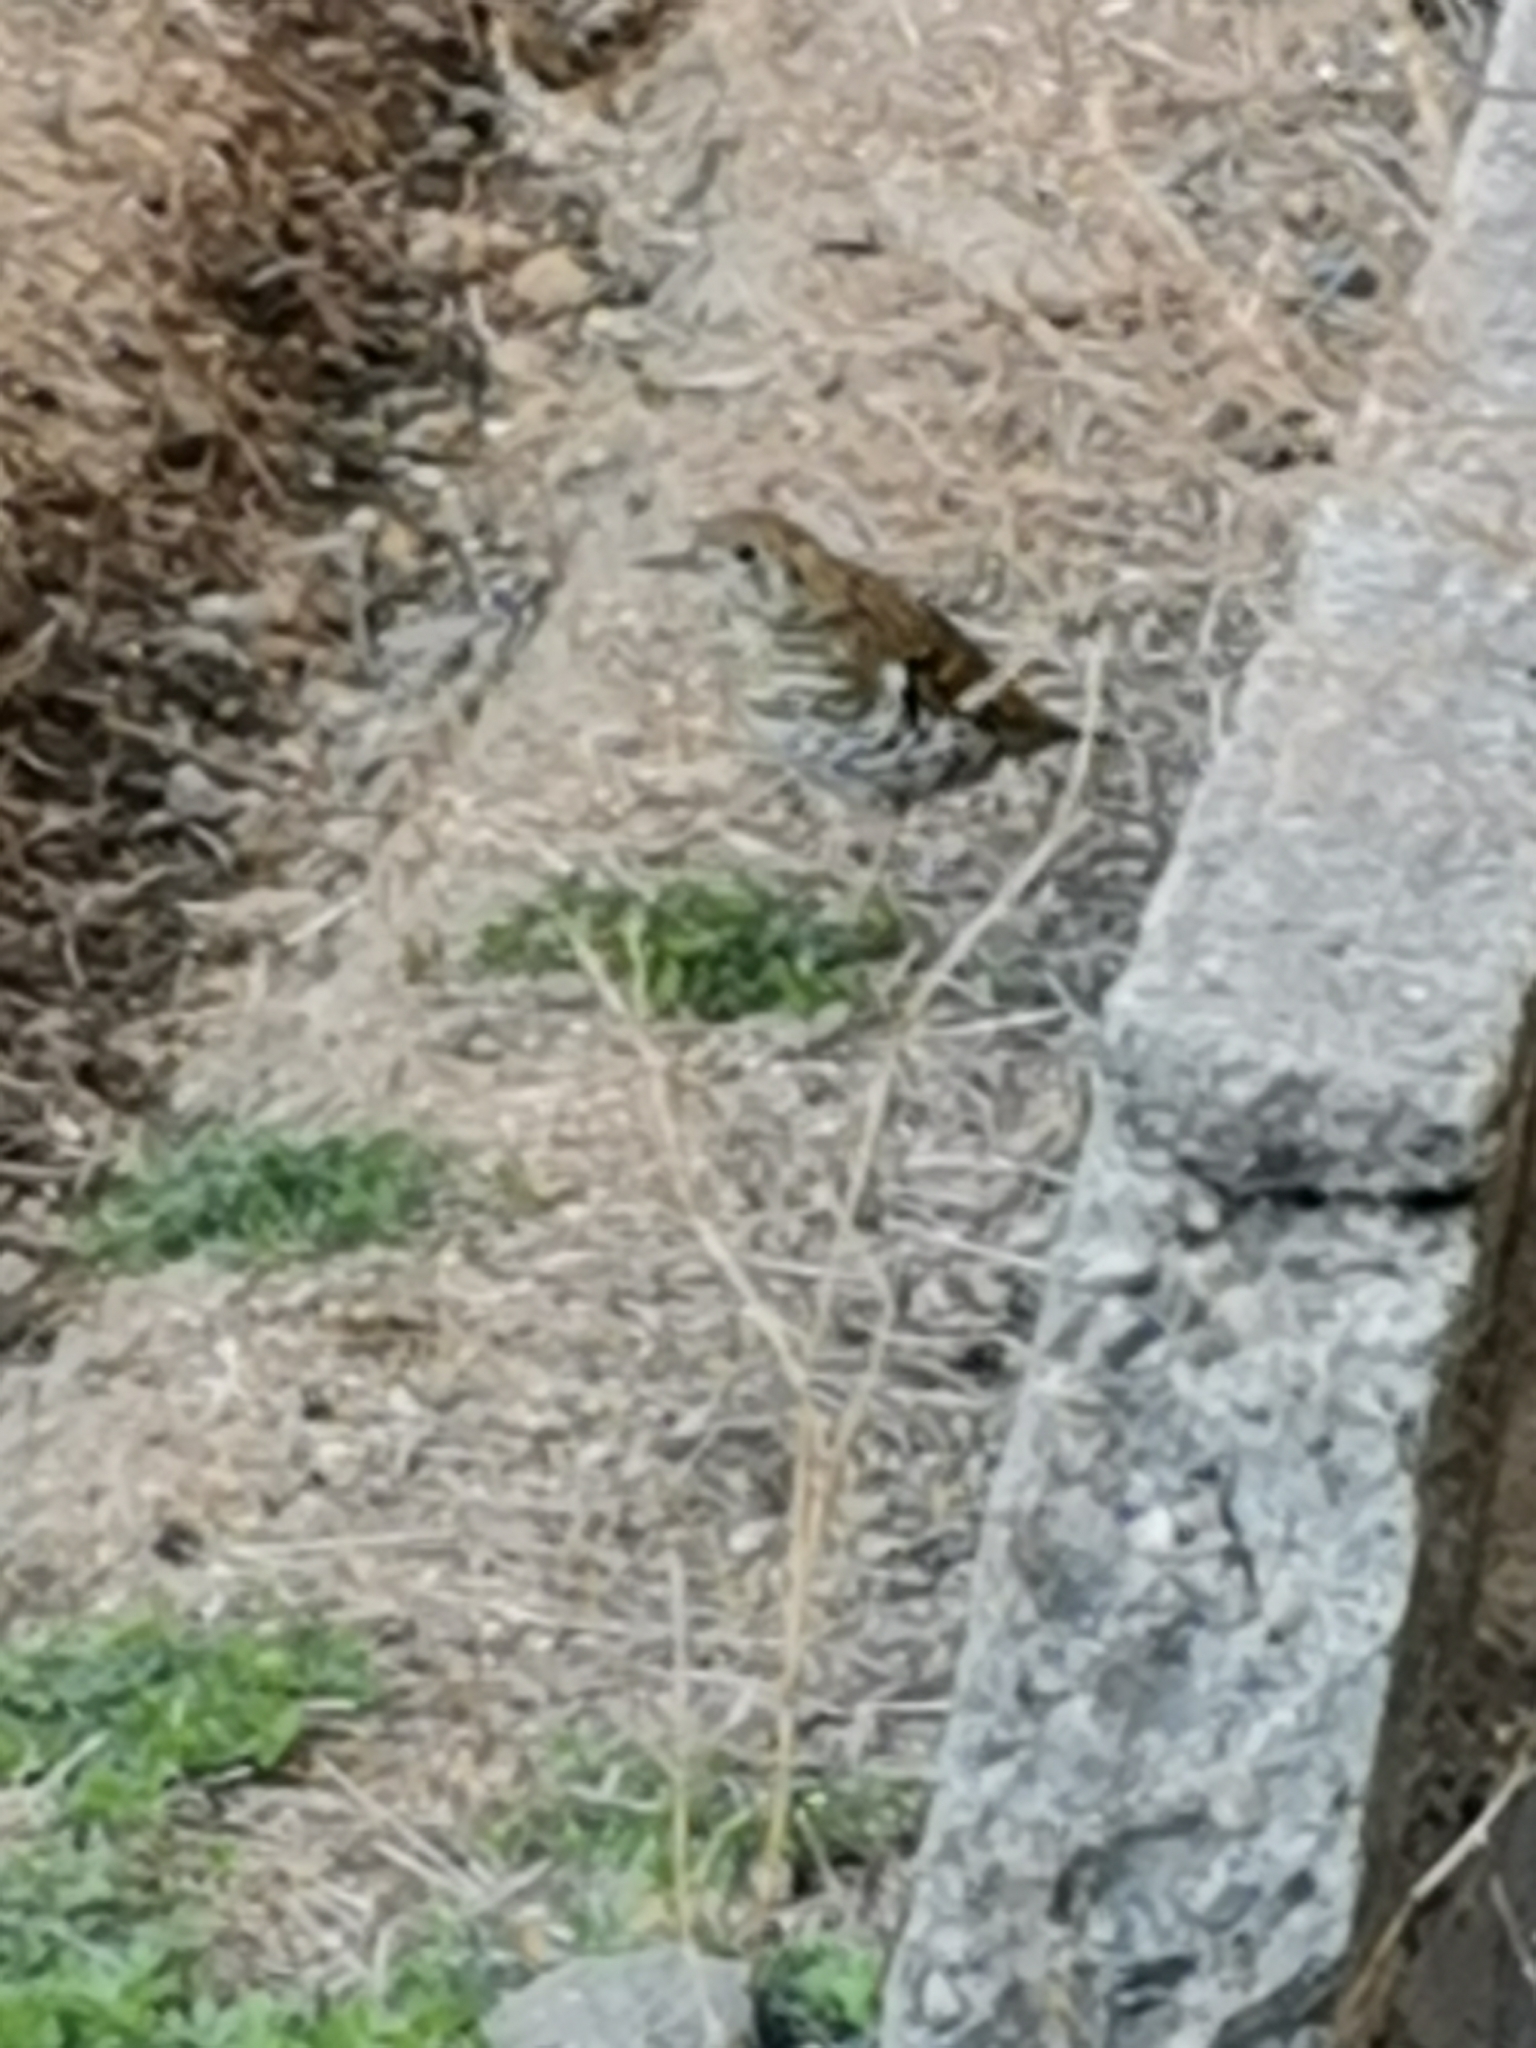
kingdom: Animalia
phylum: Chordata
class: Aves
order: Passeriformes
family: Turdidae
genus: Zoothera
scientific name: Zoothera aurea
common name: White's thrush
